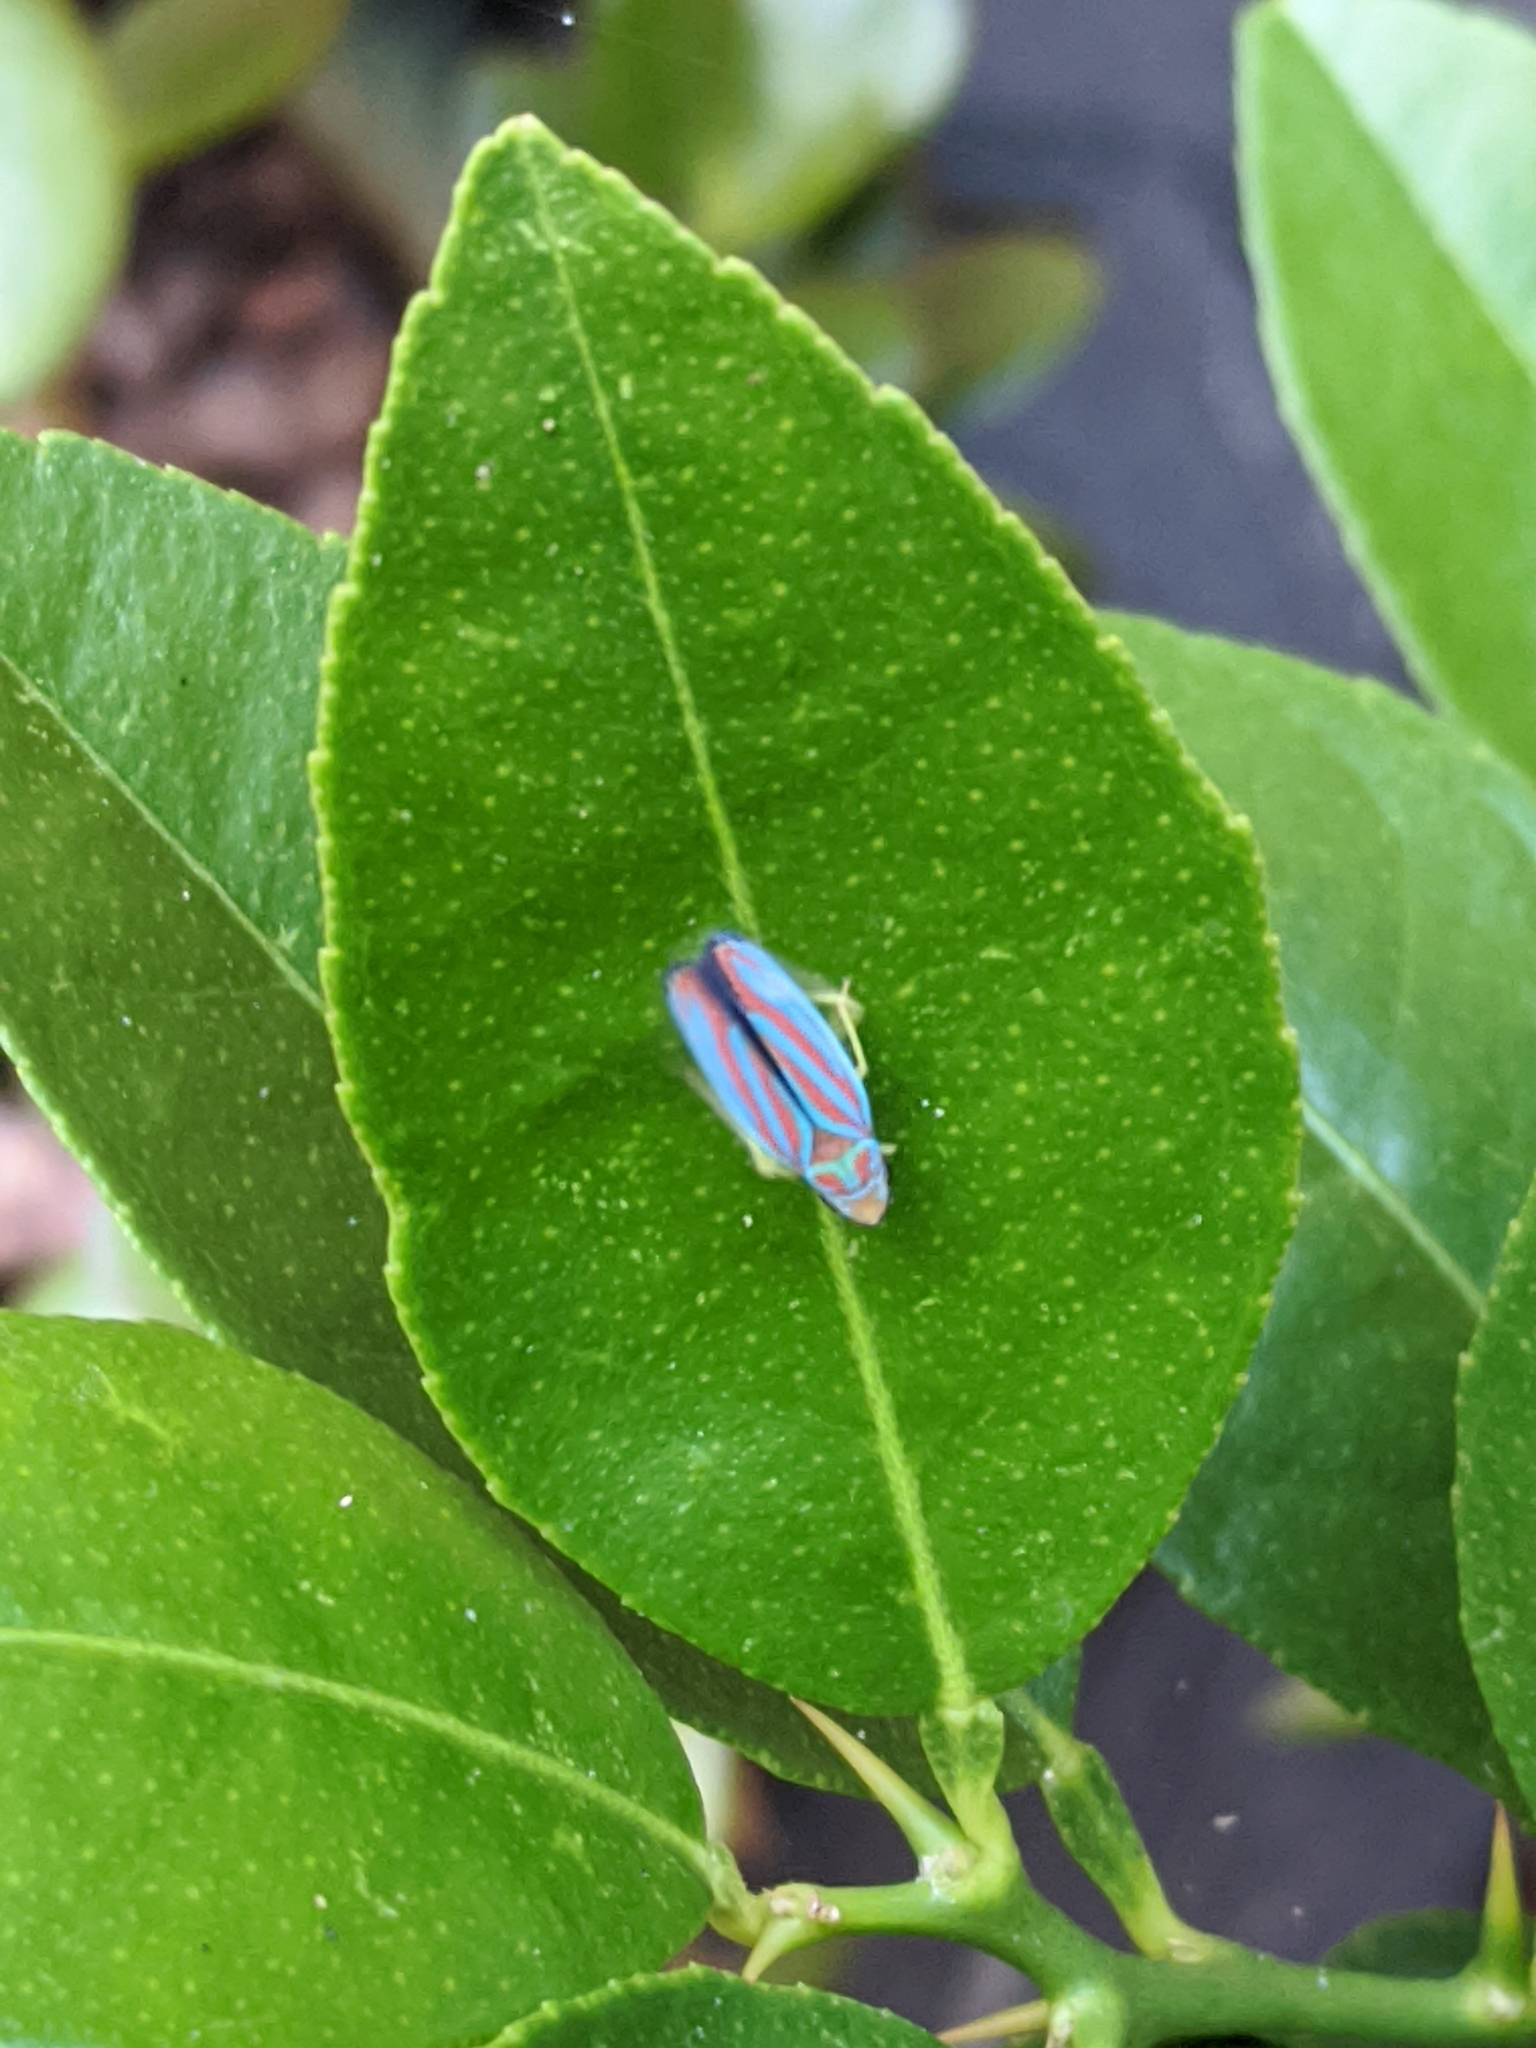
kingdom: Animalia
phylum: Arthropoda
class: Insecta
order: Hemiptera
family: Cicadellidae
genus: Graphocephala
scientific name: Graphocephala coccinea
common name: Candy-striped leafhopper
